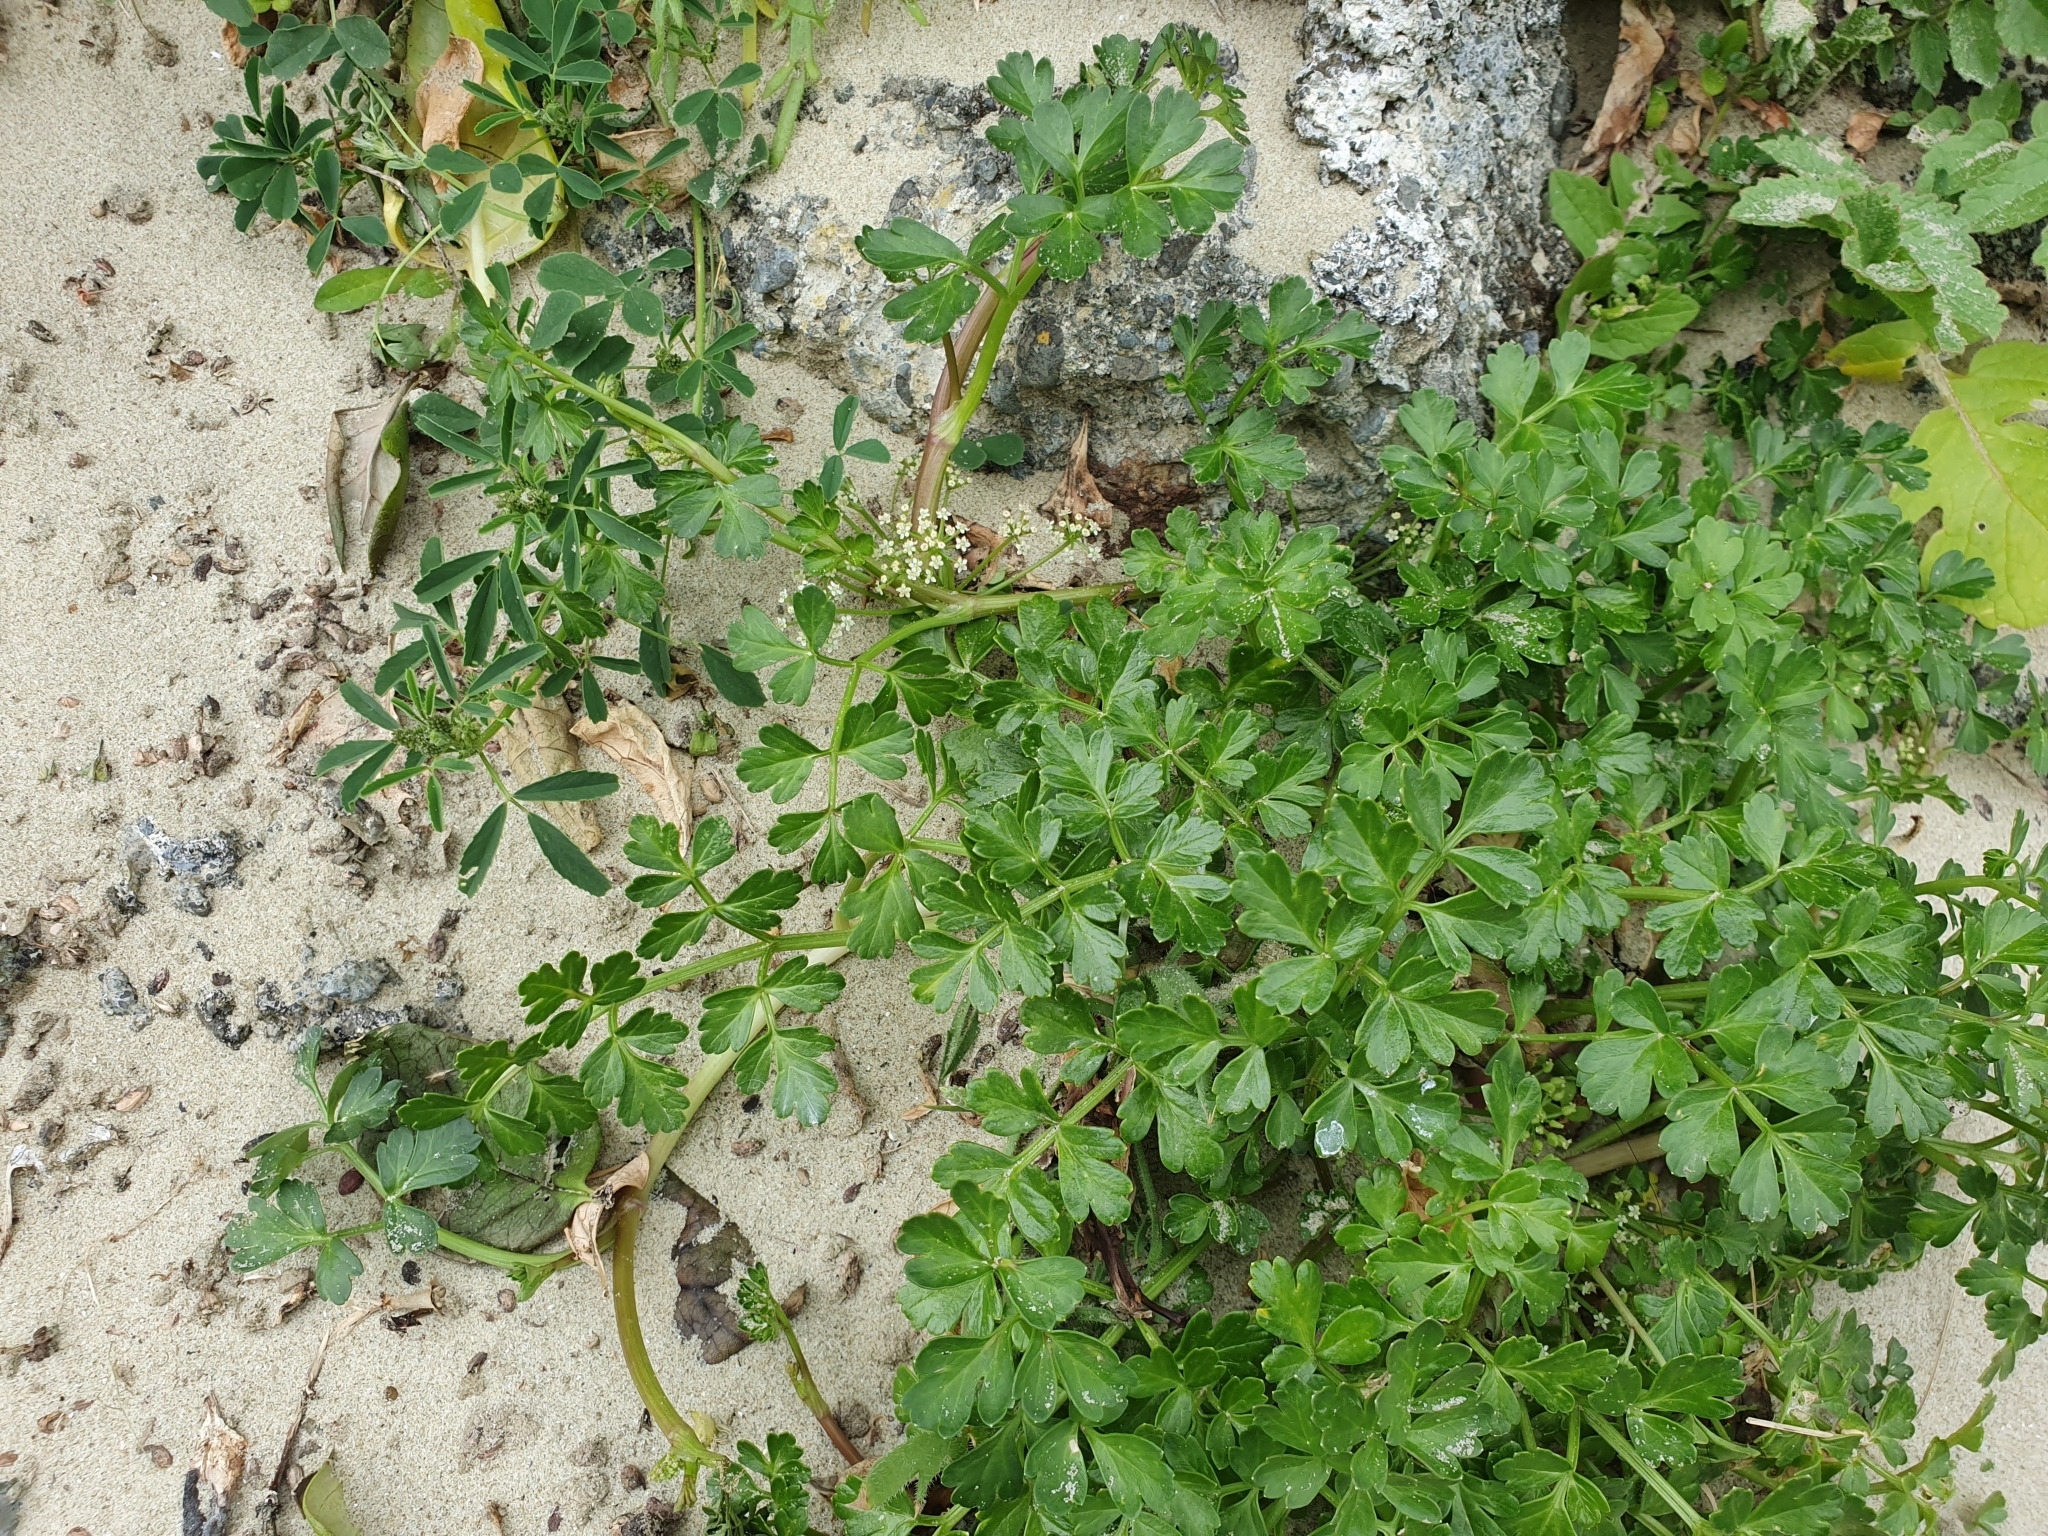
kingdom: Plantae
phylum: Tracheophyta
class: Magnoliopsida
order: Apiales
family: Apiaceae
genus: Apium
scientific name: Apium prostratum
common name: Prostrate marshwort
